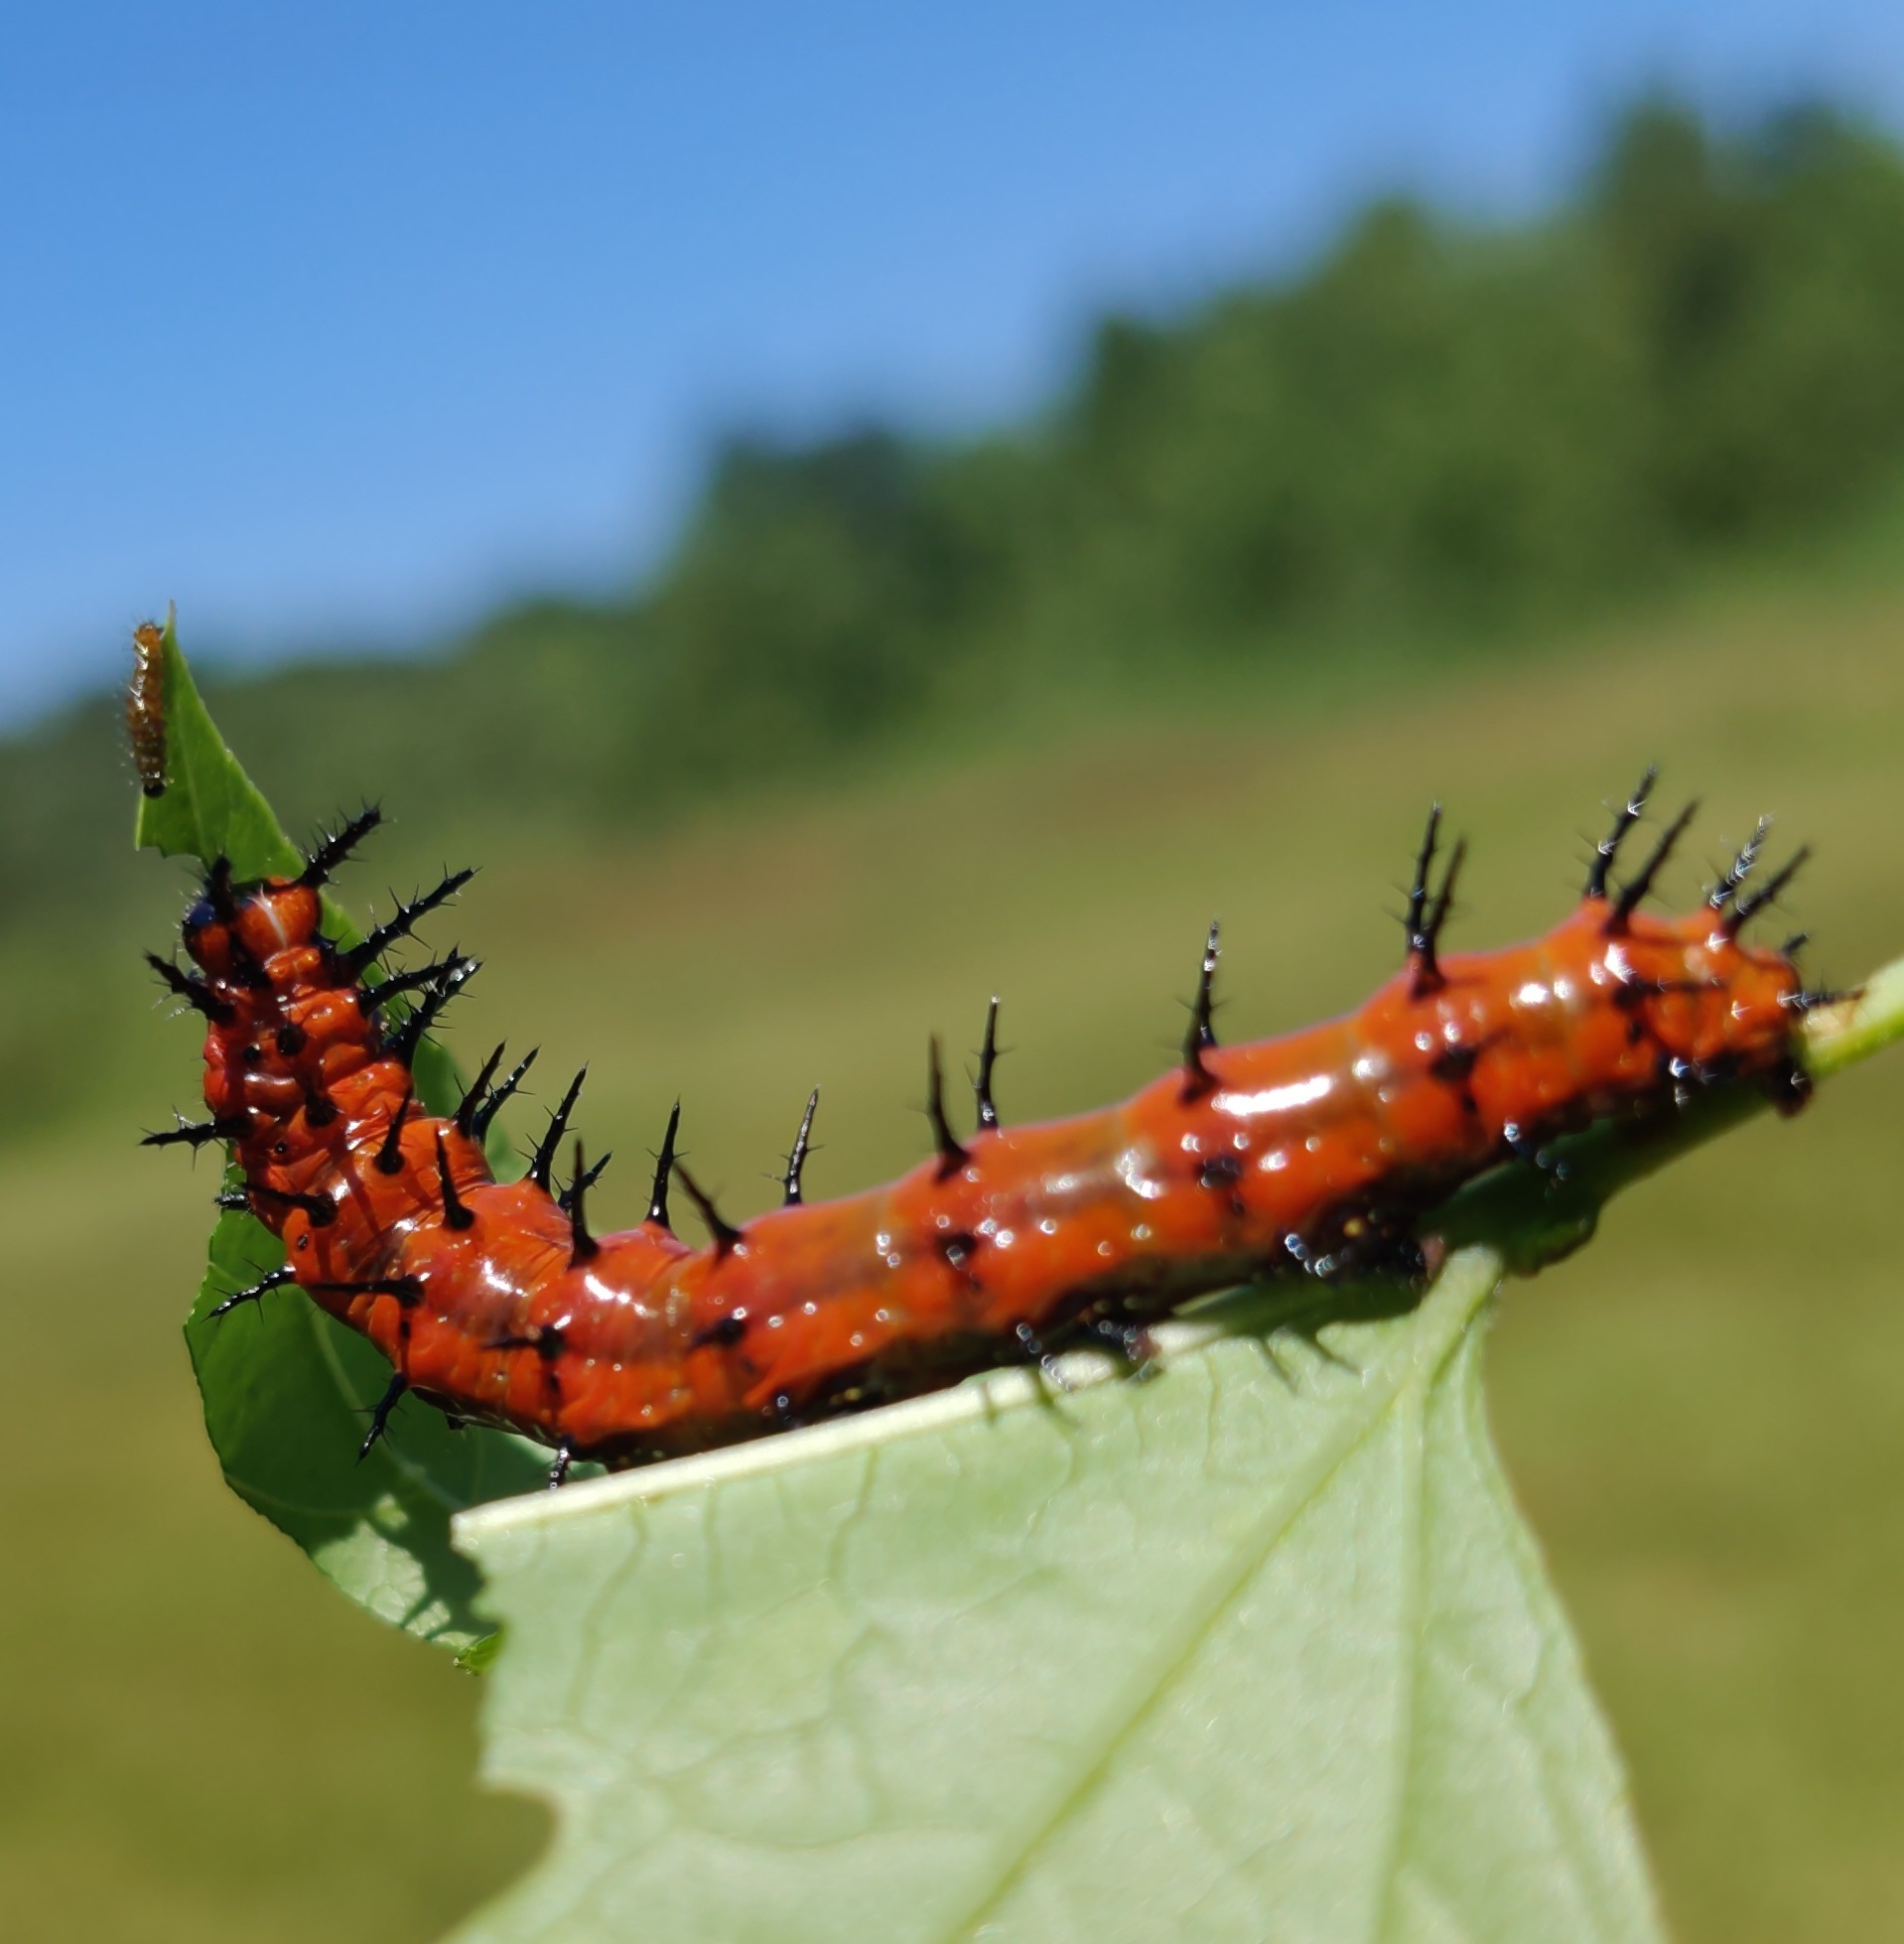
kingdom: Animalia
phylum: Arthropoda
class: Insecta
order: Lepidoptera
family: Nymphalidae
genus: Dione
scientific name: Dione vanillae
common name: Gulf fritillary
